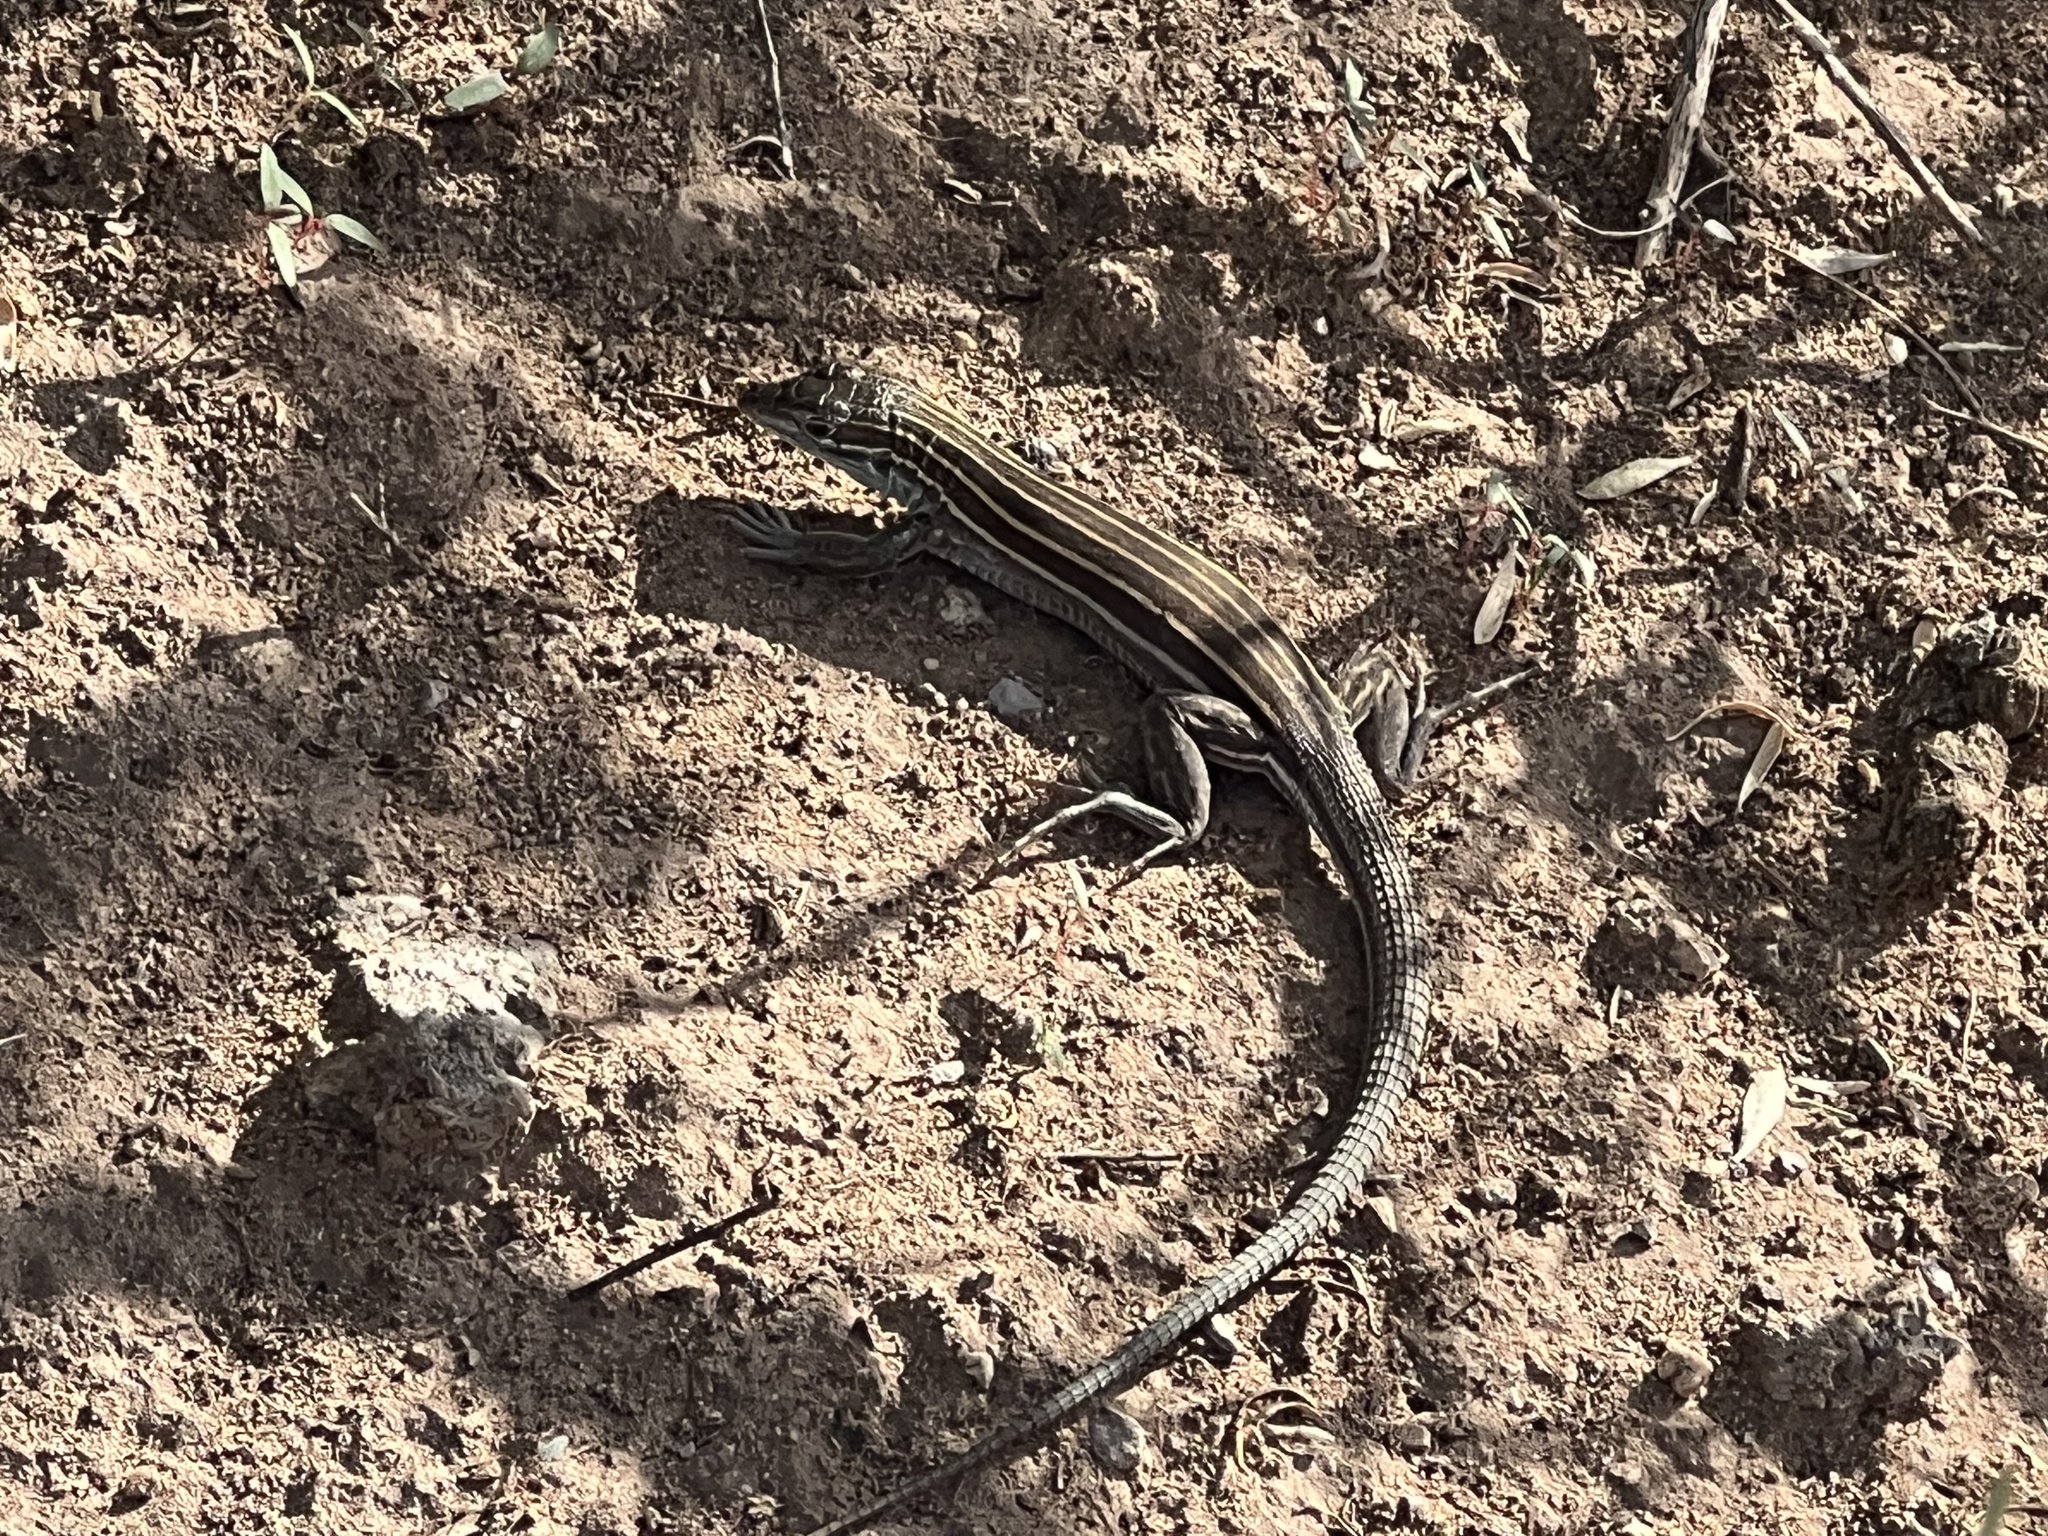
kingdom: Animalia
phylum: Chordata
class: Squamata
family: Teiidae
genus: Aspidoscelis
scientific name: Aspidoscelis uniparens
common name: Desert grassland whiptail
